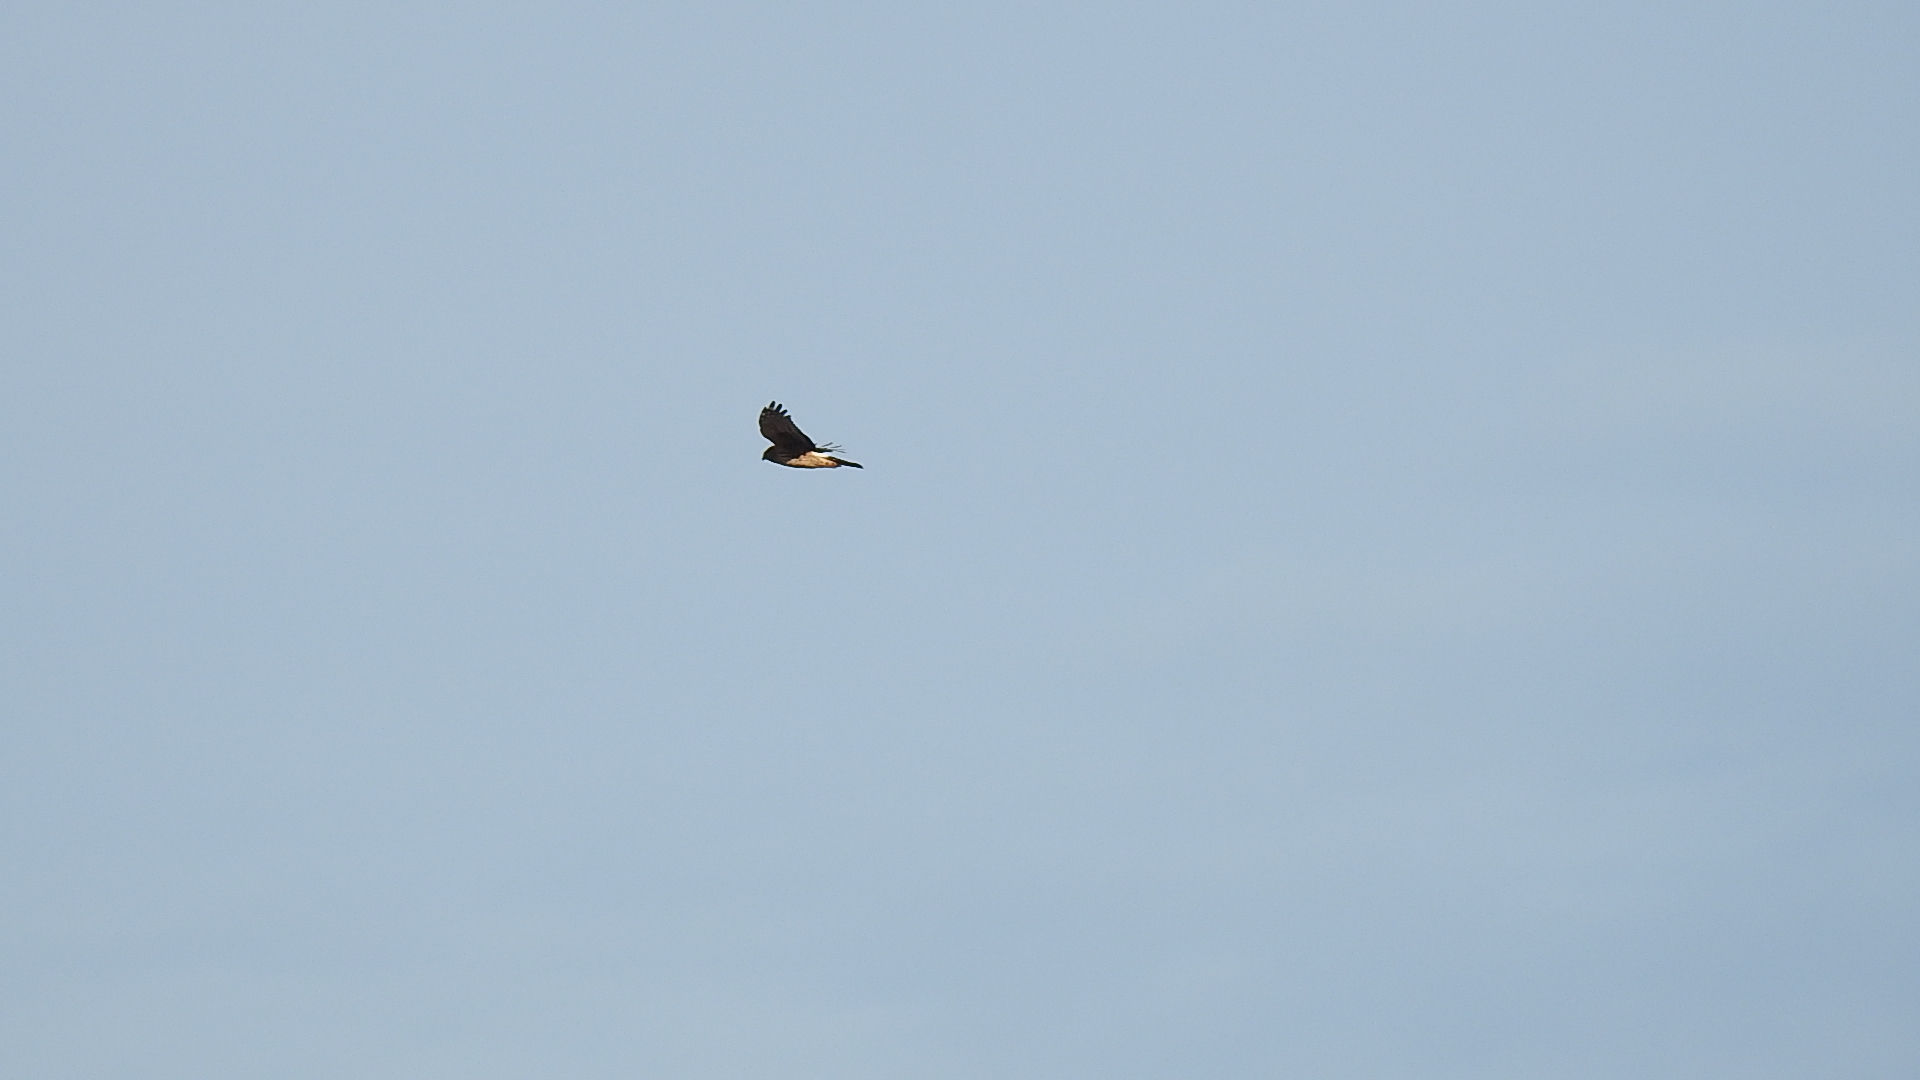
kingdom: Animalia
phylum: Chordata
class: Aves
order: Accipitriformes
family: Accipitridae
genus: Circus
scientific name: Circus cyaneus
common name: Hen harrier
